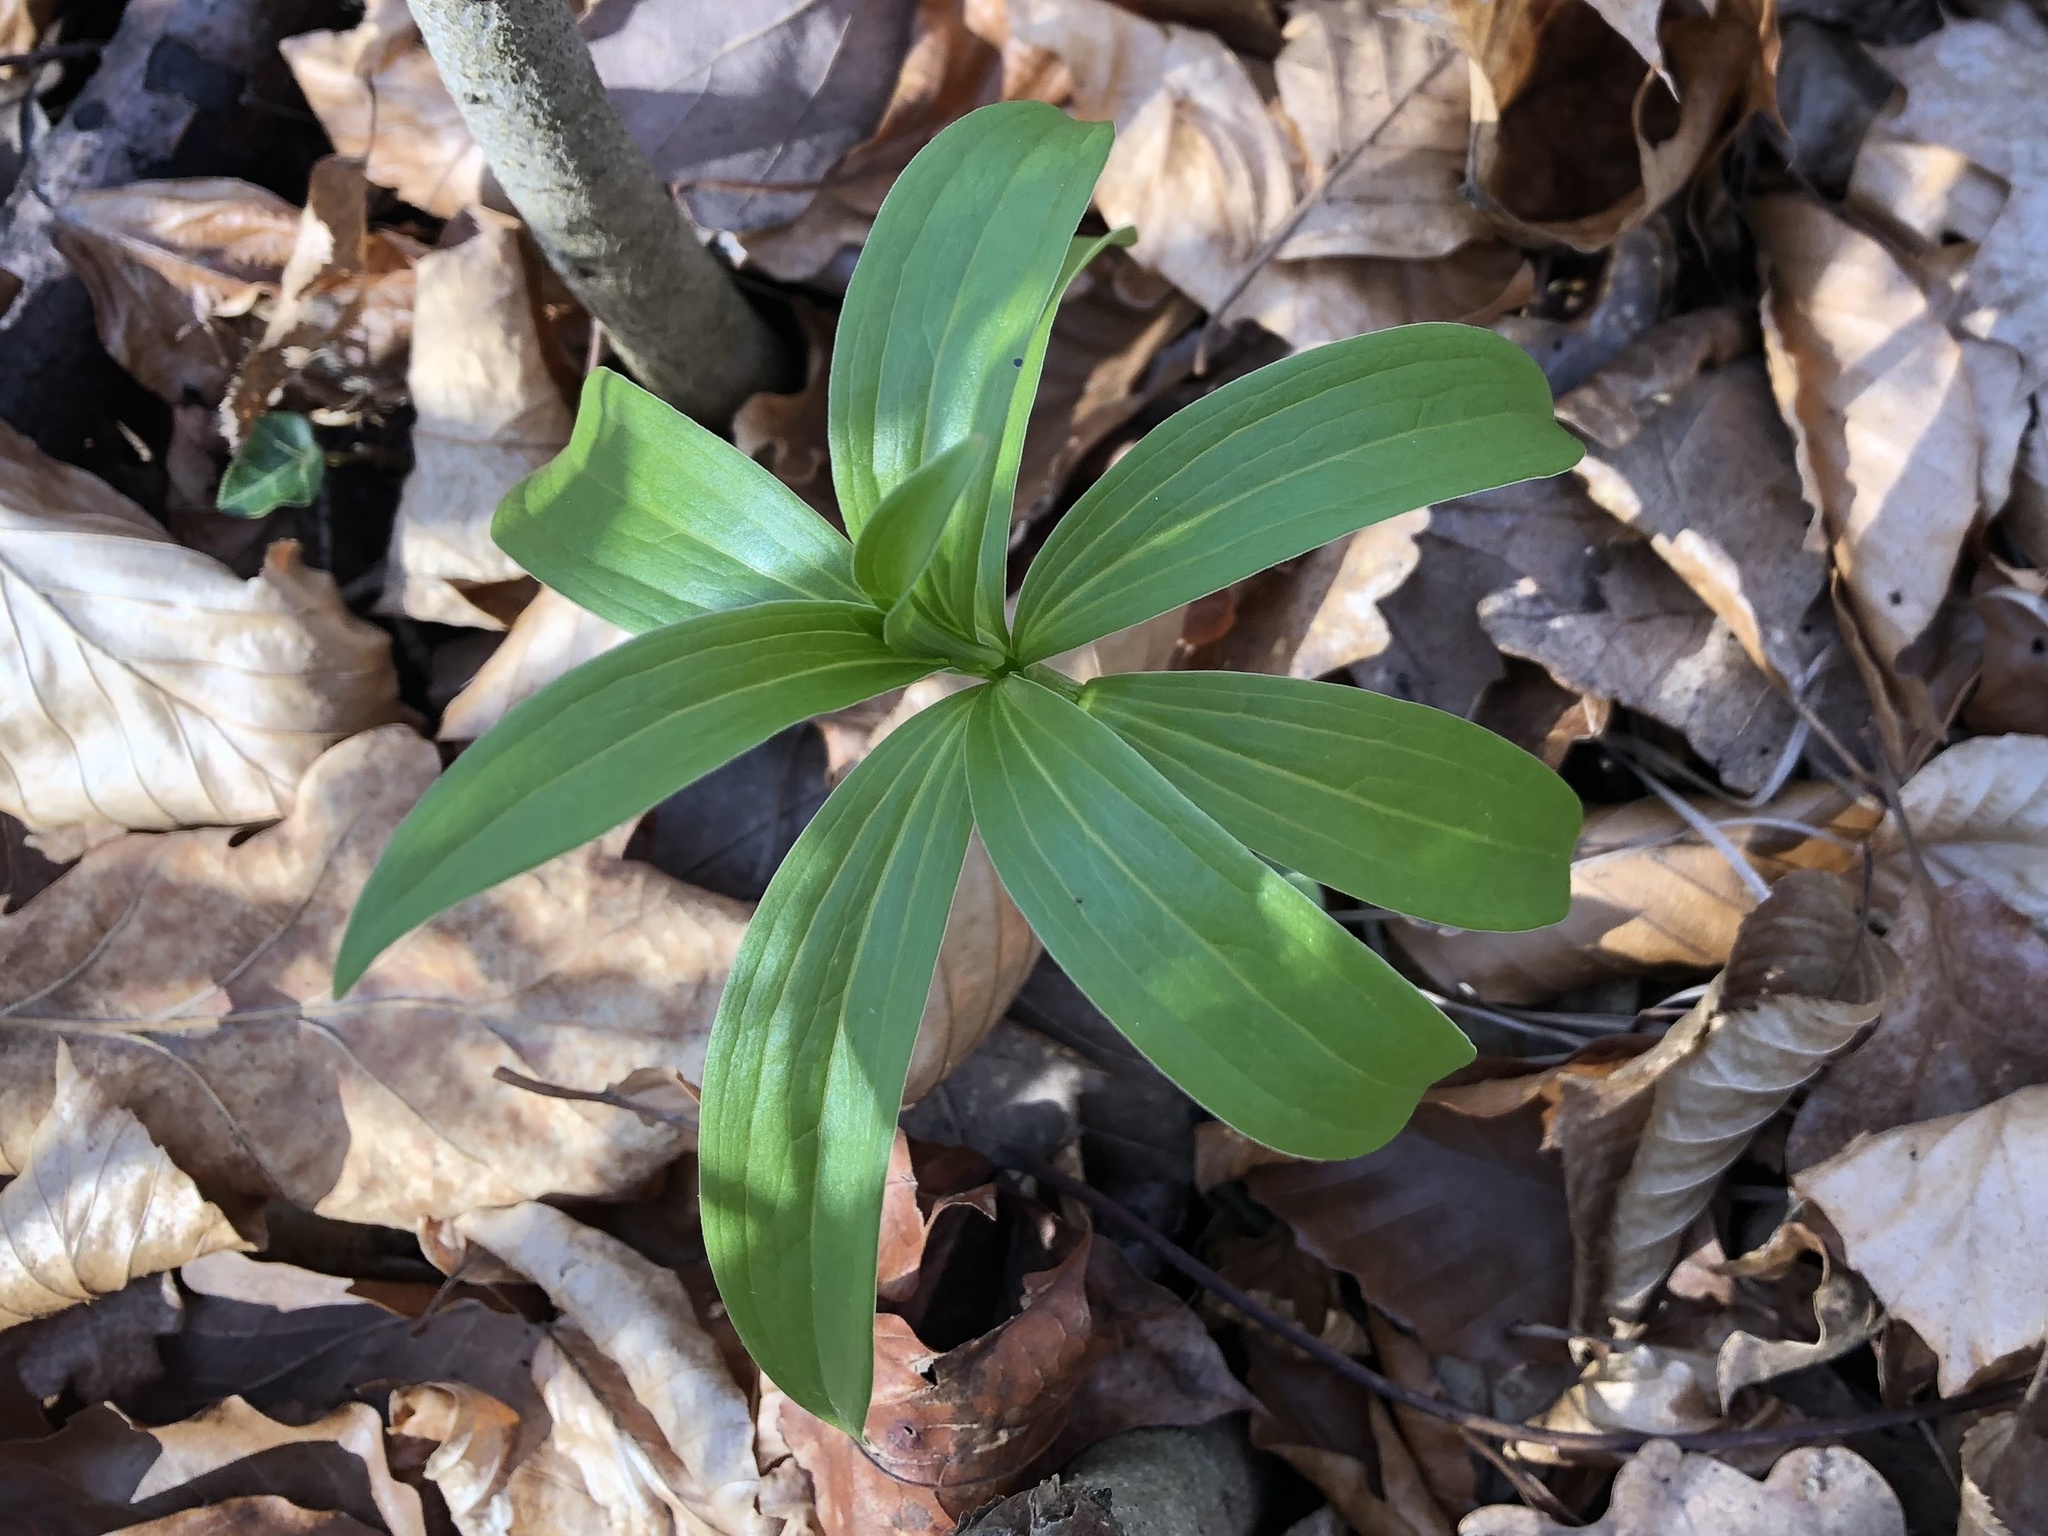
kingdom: Plantae
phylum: Tracheophyta
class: Liliopsida
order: Liliales
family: Liliaceae
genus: Lilium
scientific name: Lilium martagon
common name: Martagon lily
